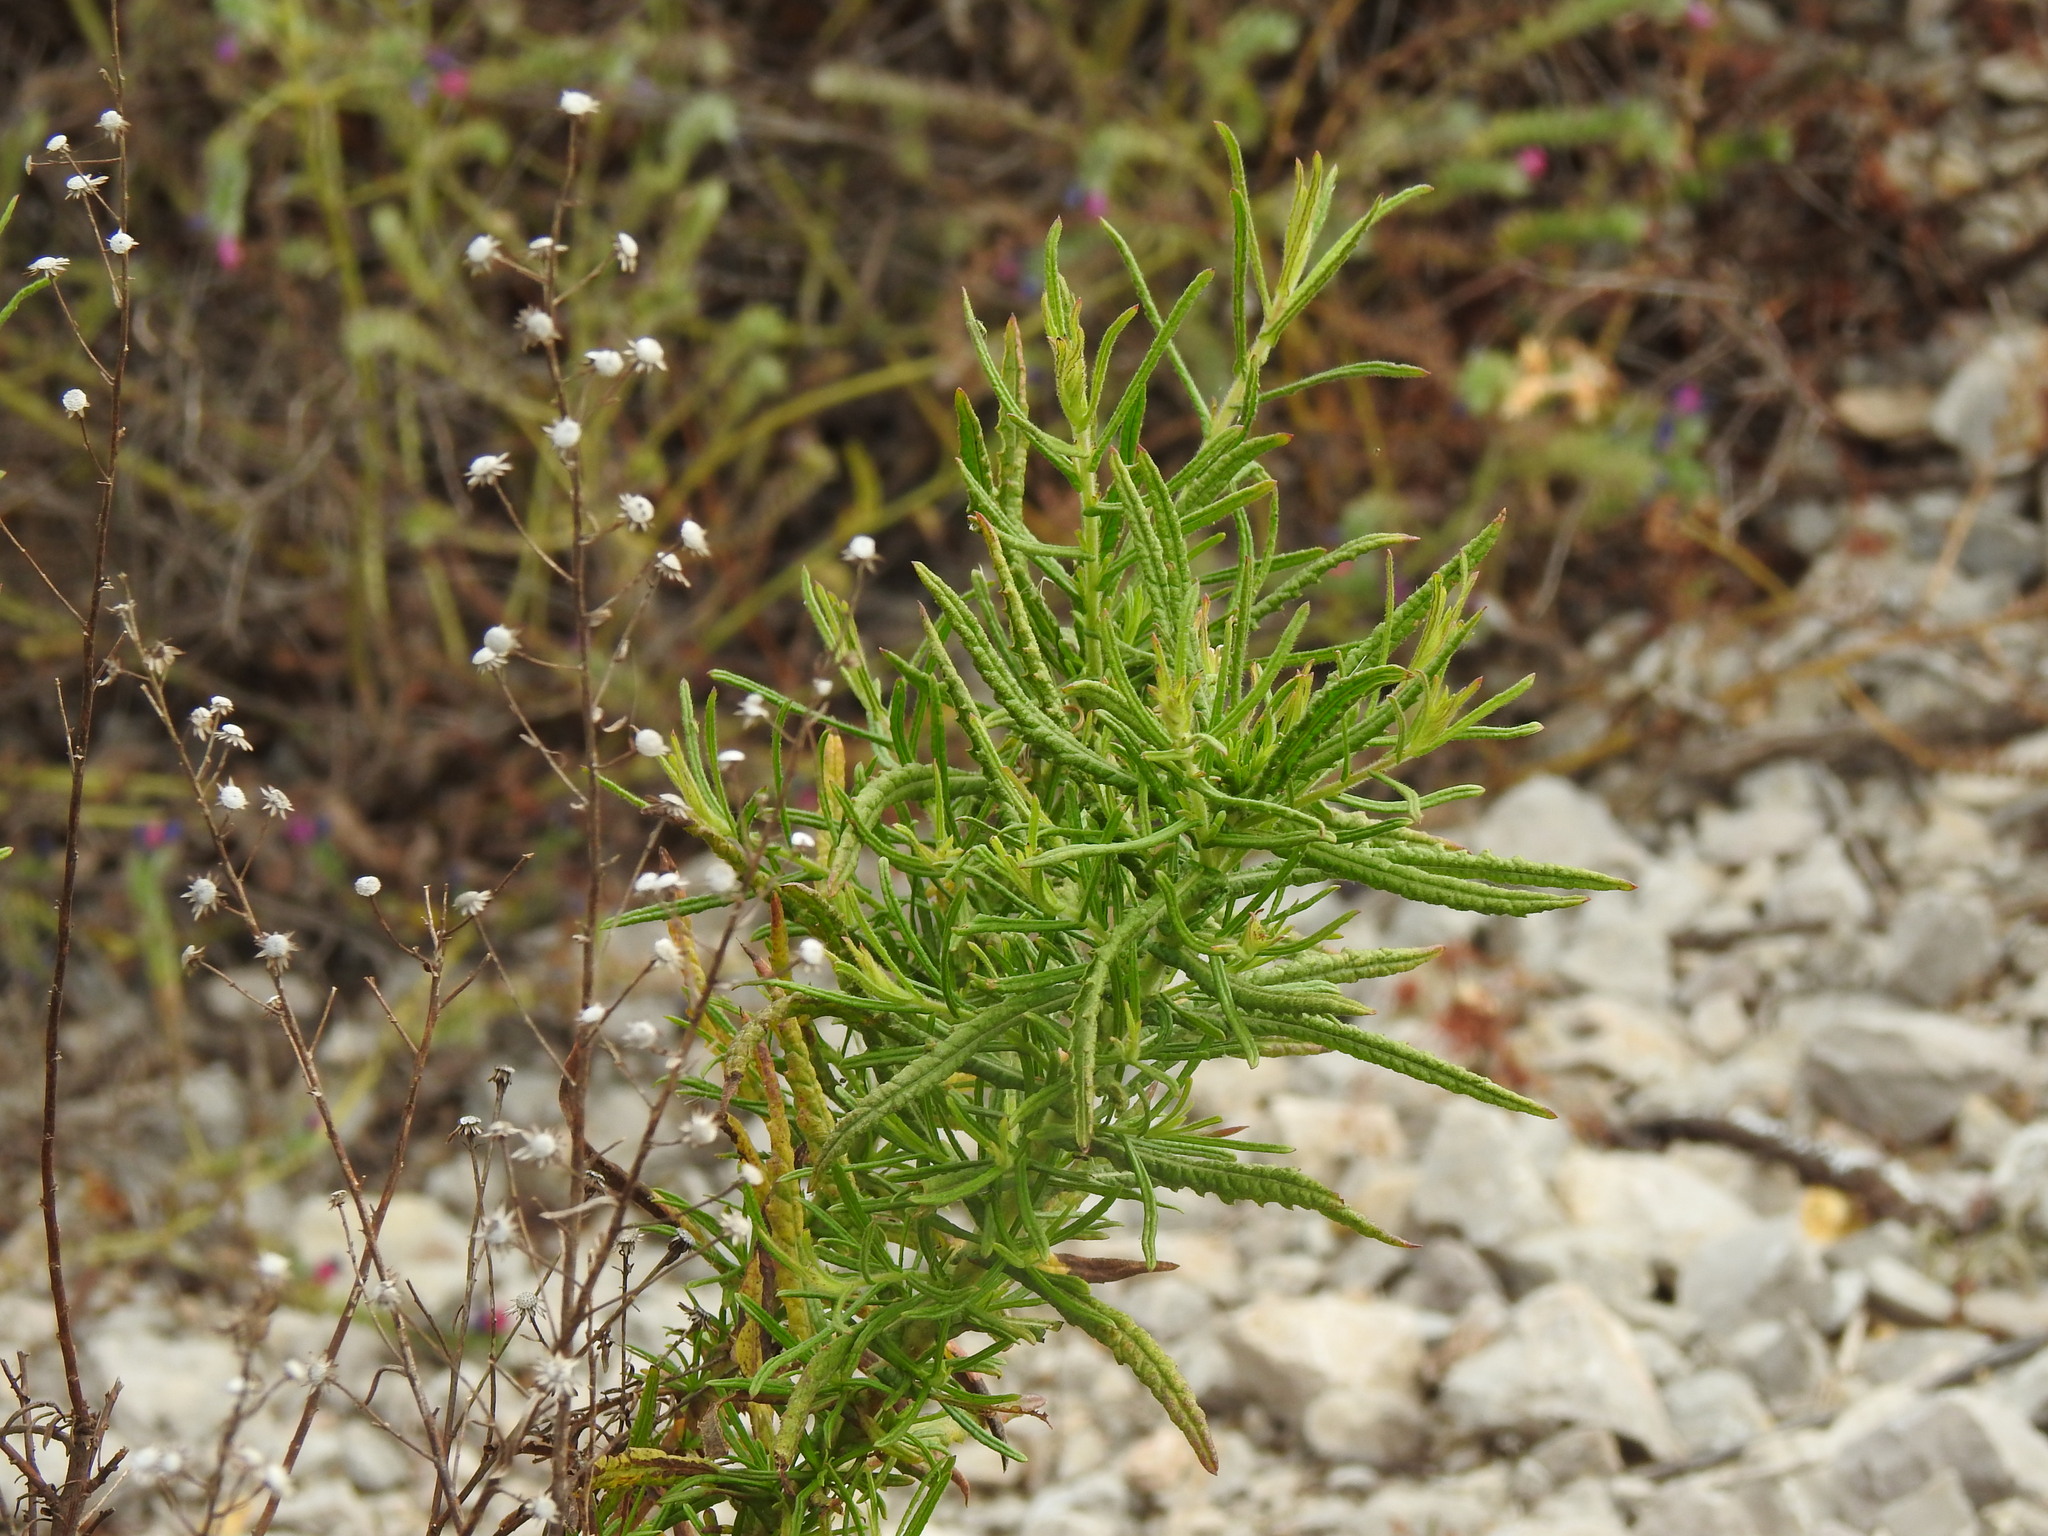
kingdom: Plantae
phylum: Tracheophyta
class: Magnoliopsida
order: Asterales
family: Asteraceae
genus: Dittrichia
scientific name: Dittrichia viscosa
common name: Woody fleabane
